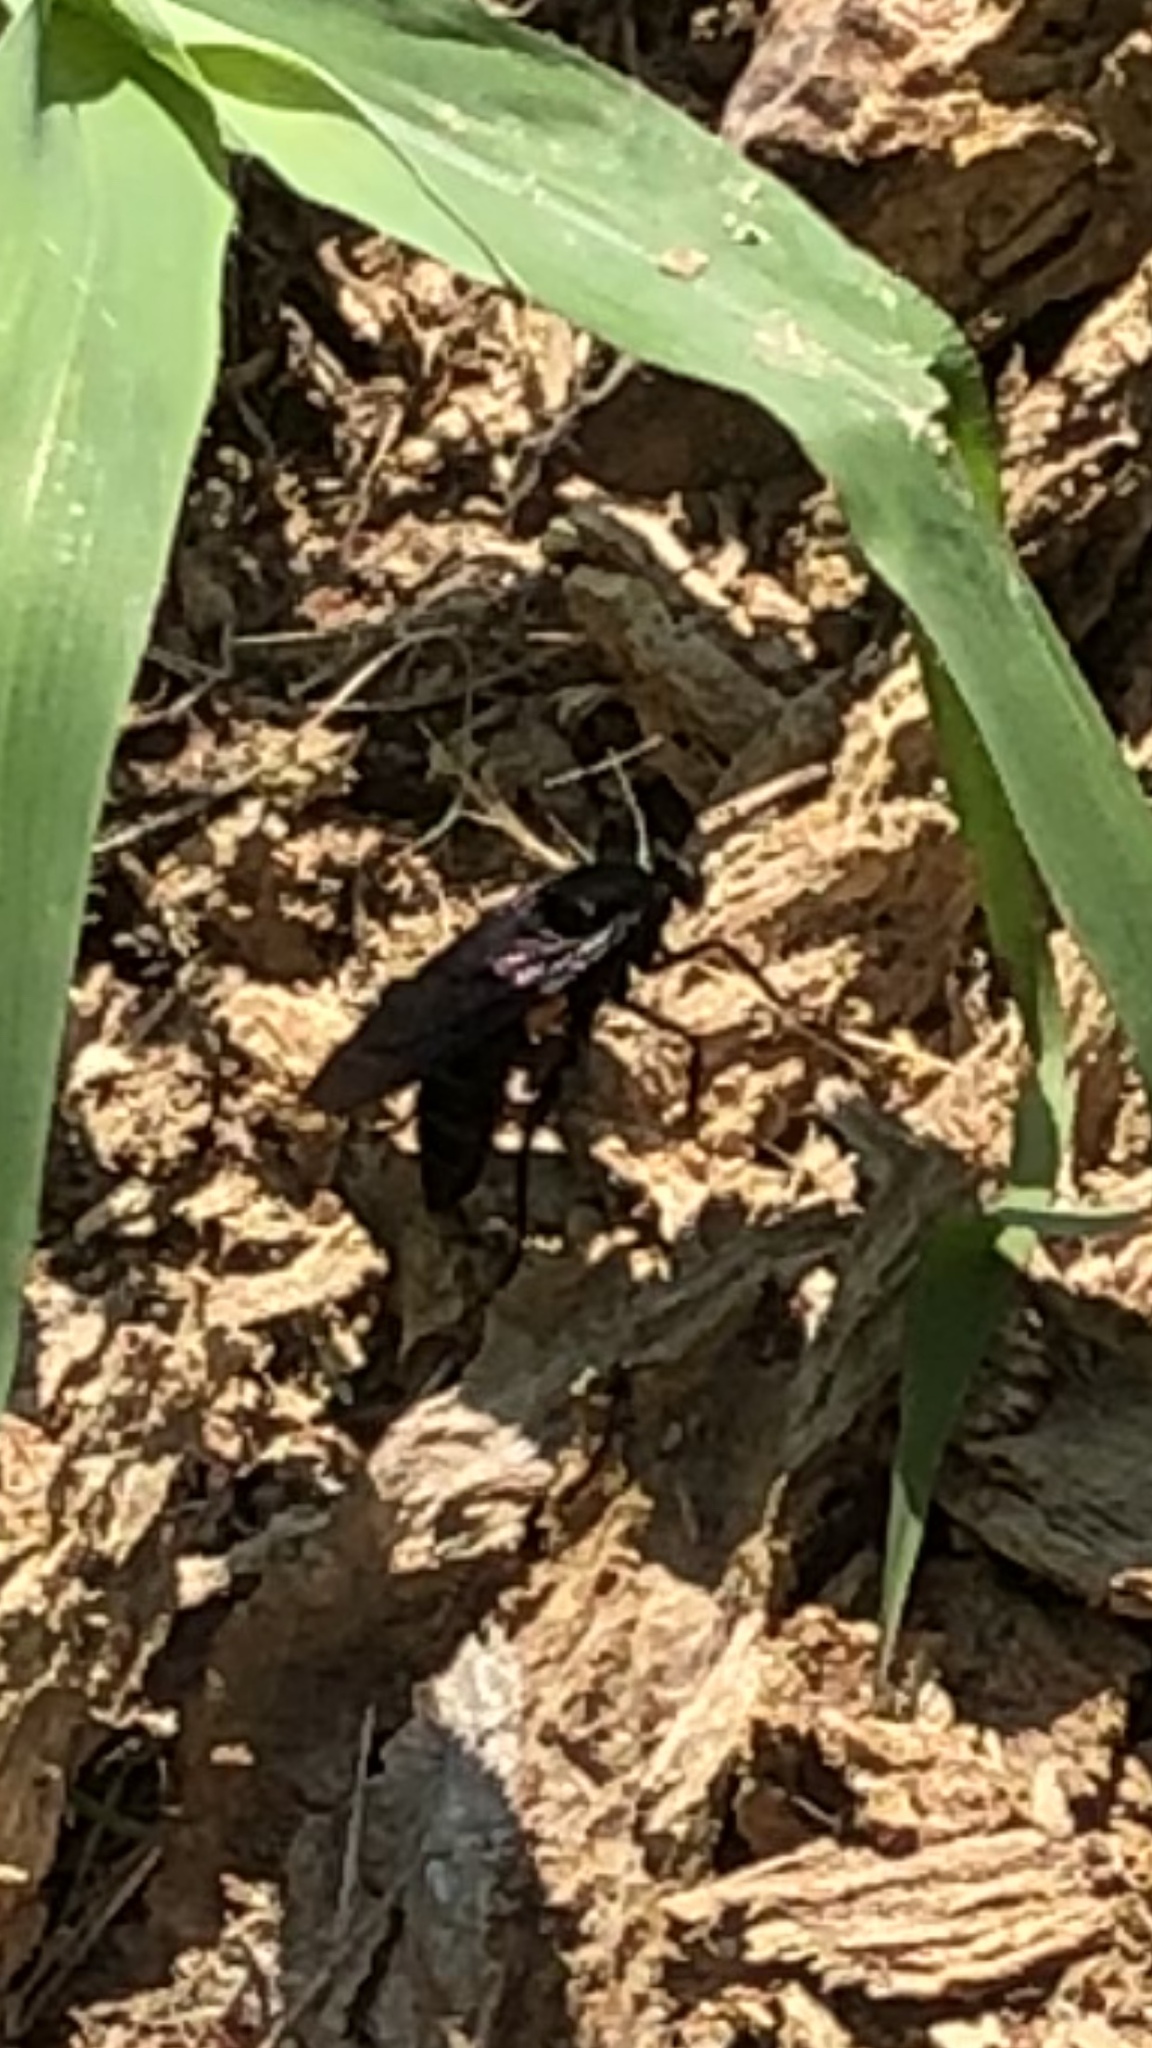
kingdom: Animalia
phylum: Arthropoda
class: Insecta
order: Diptera
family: Mydidae
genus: Mydas
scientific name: Mydas clavatus
